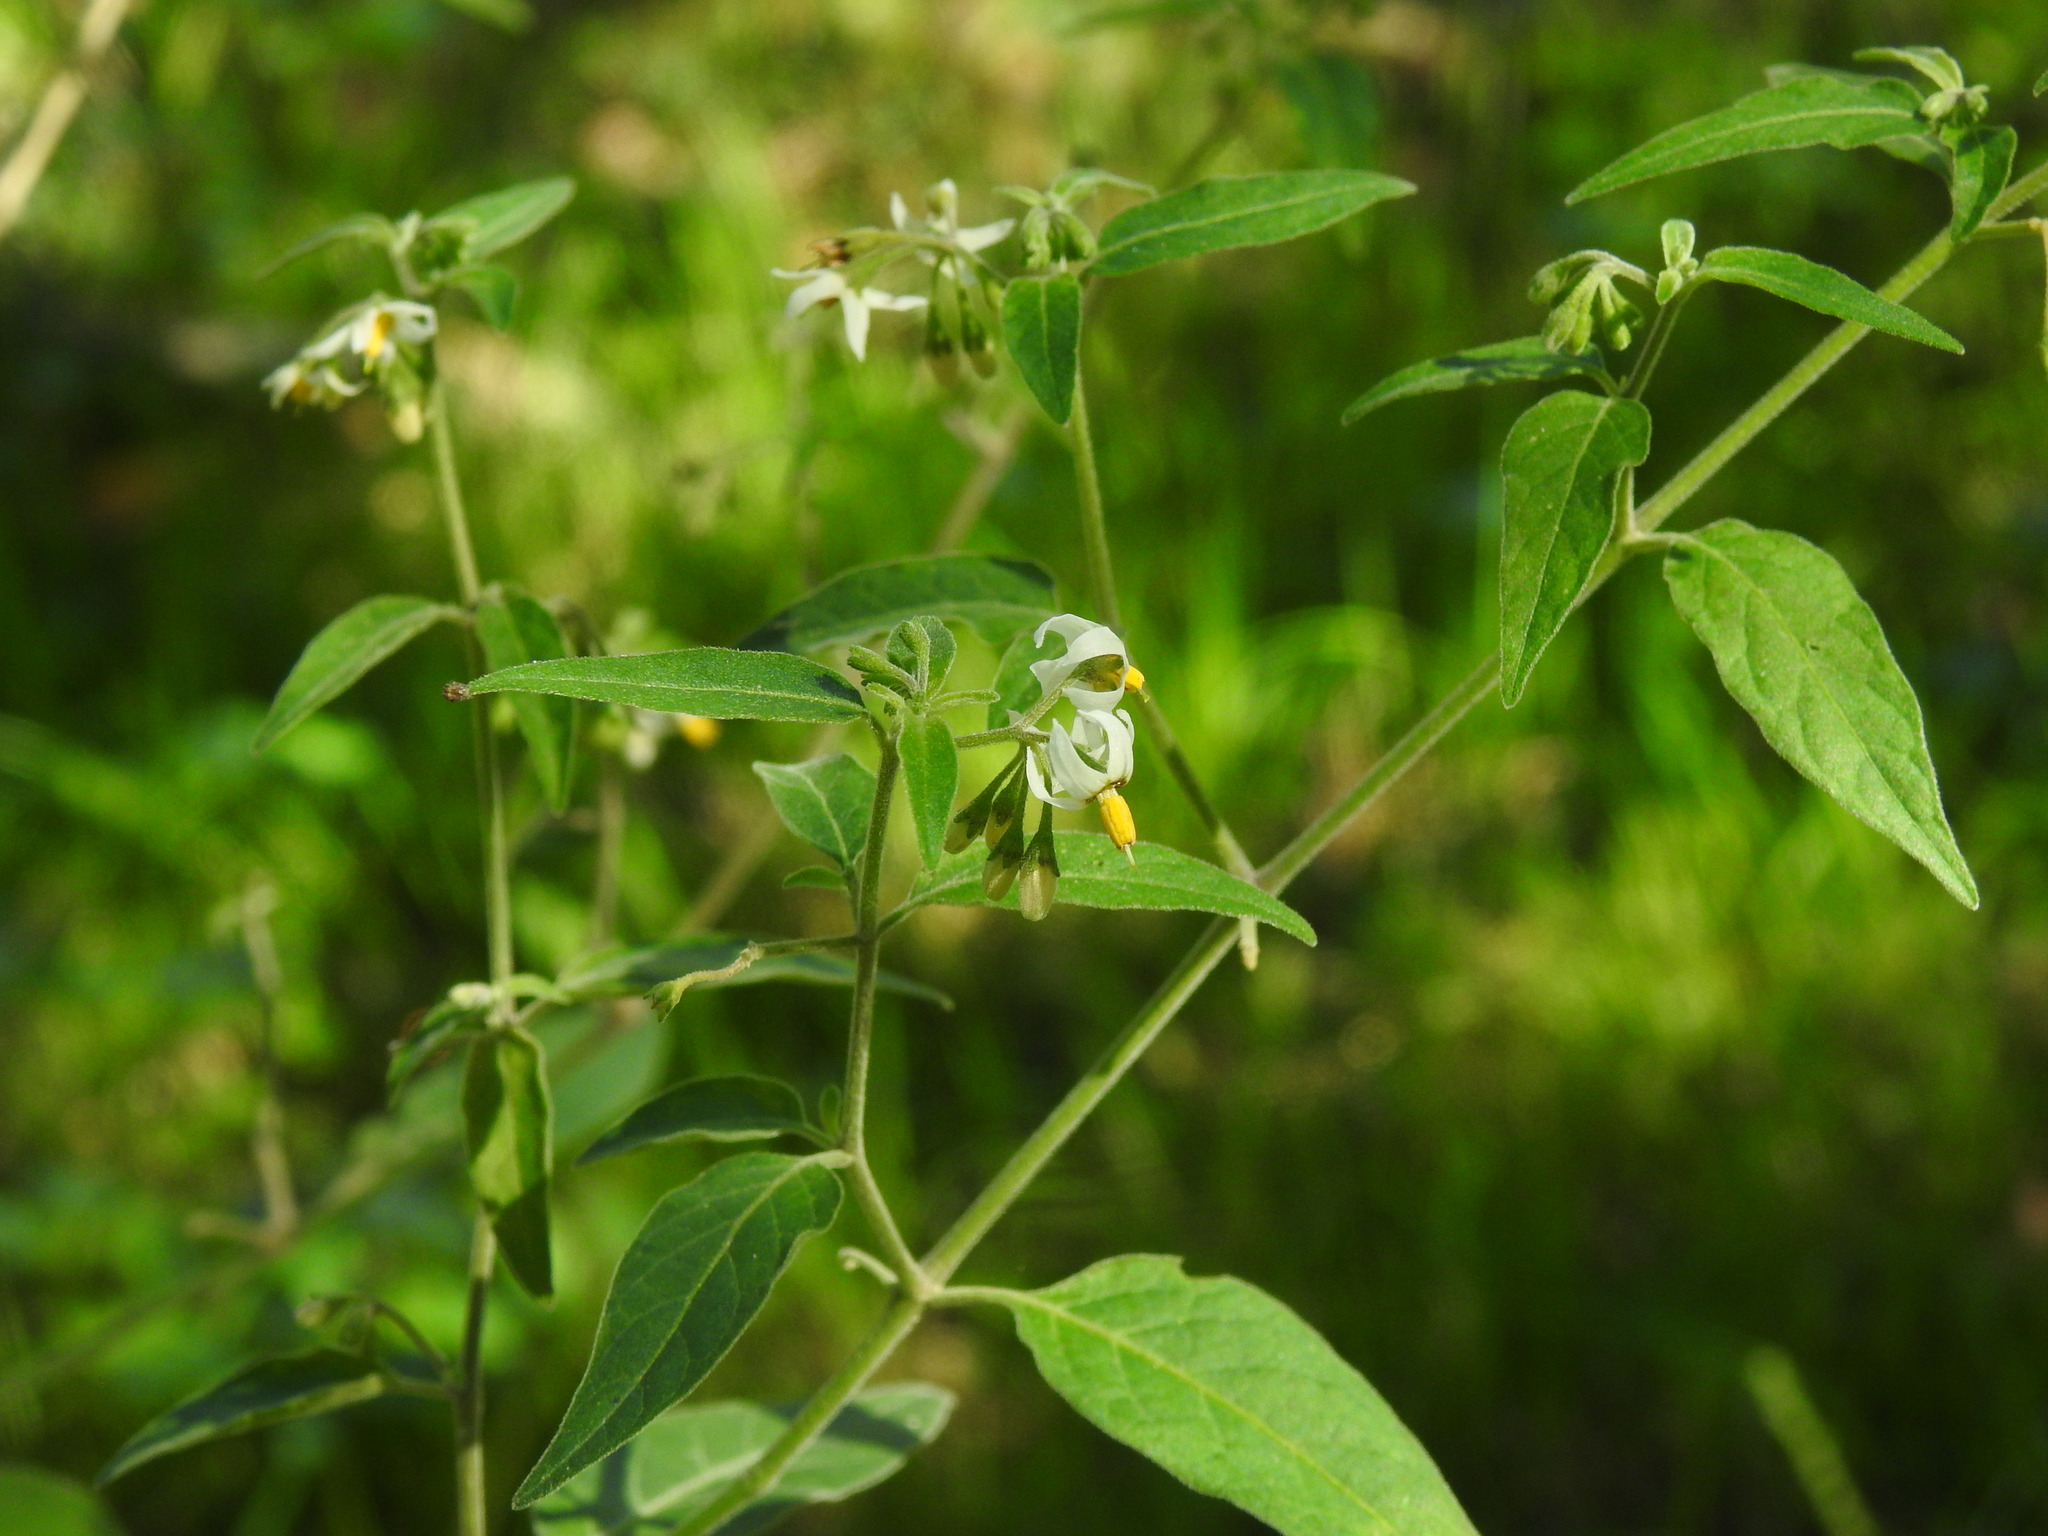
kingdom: Plantae
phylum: Tracheophyta
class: Magnoliopsida
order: Solanales
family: Solanaceae
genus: Solanum
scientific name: Solanum chenopodioides
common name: Tall nightshade
